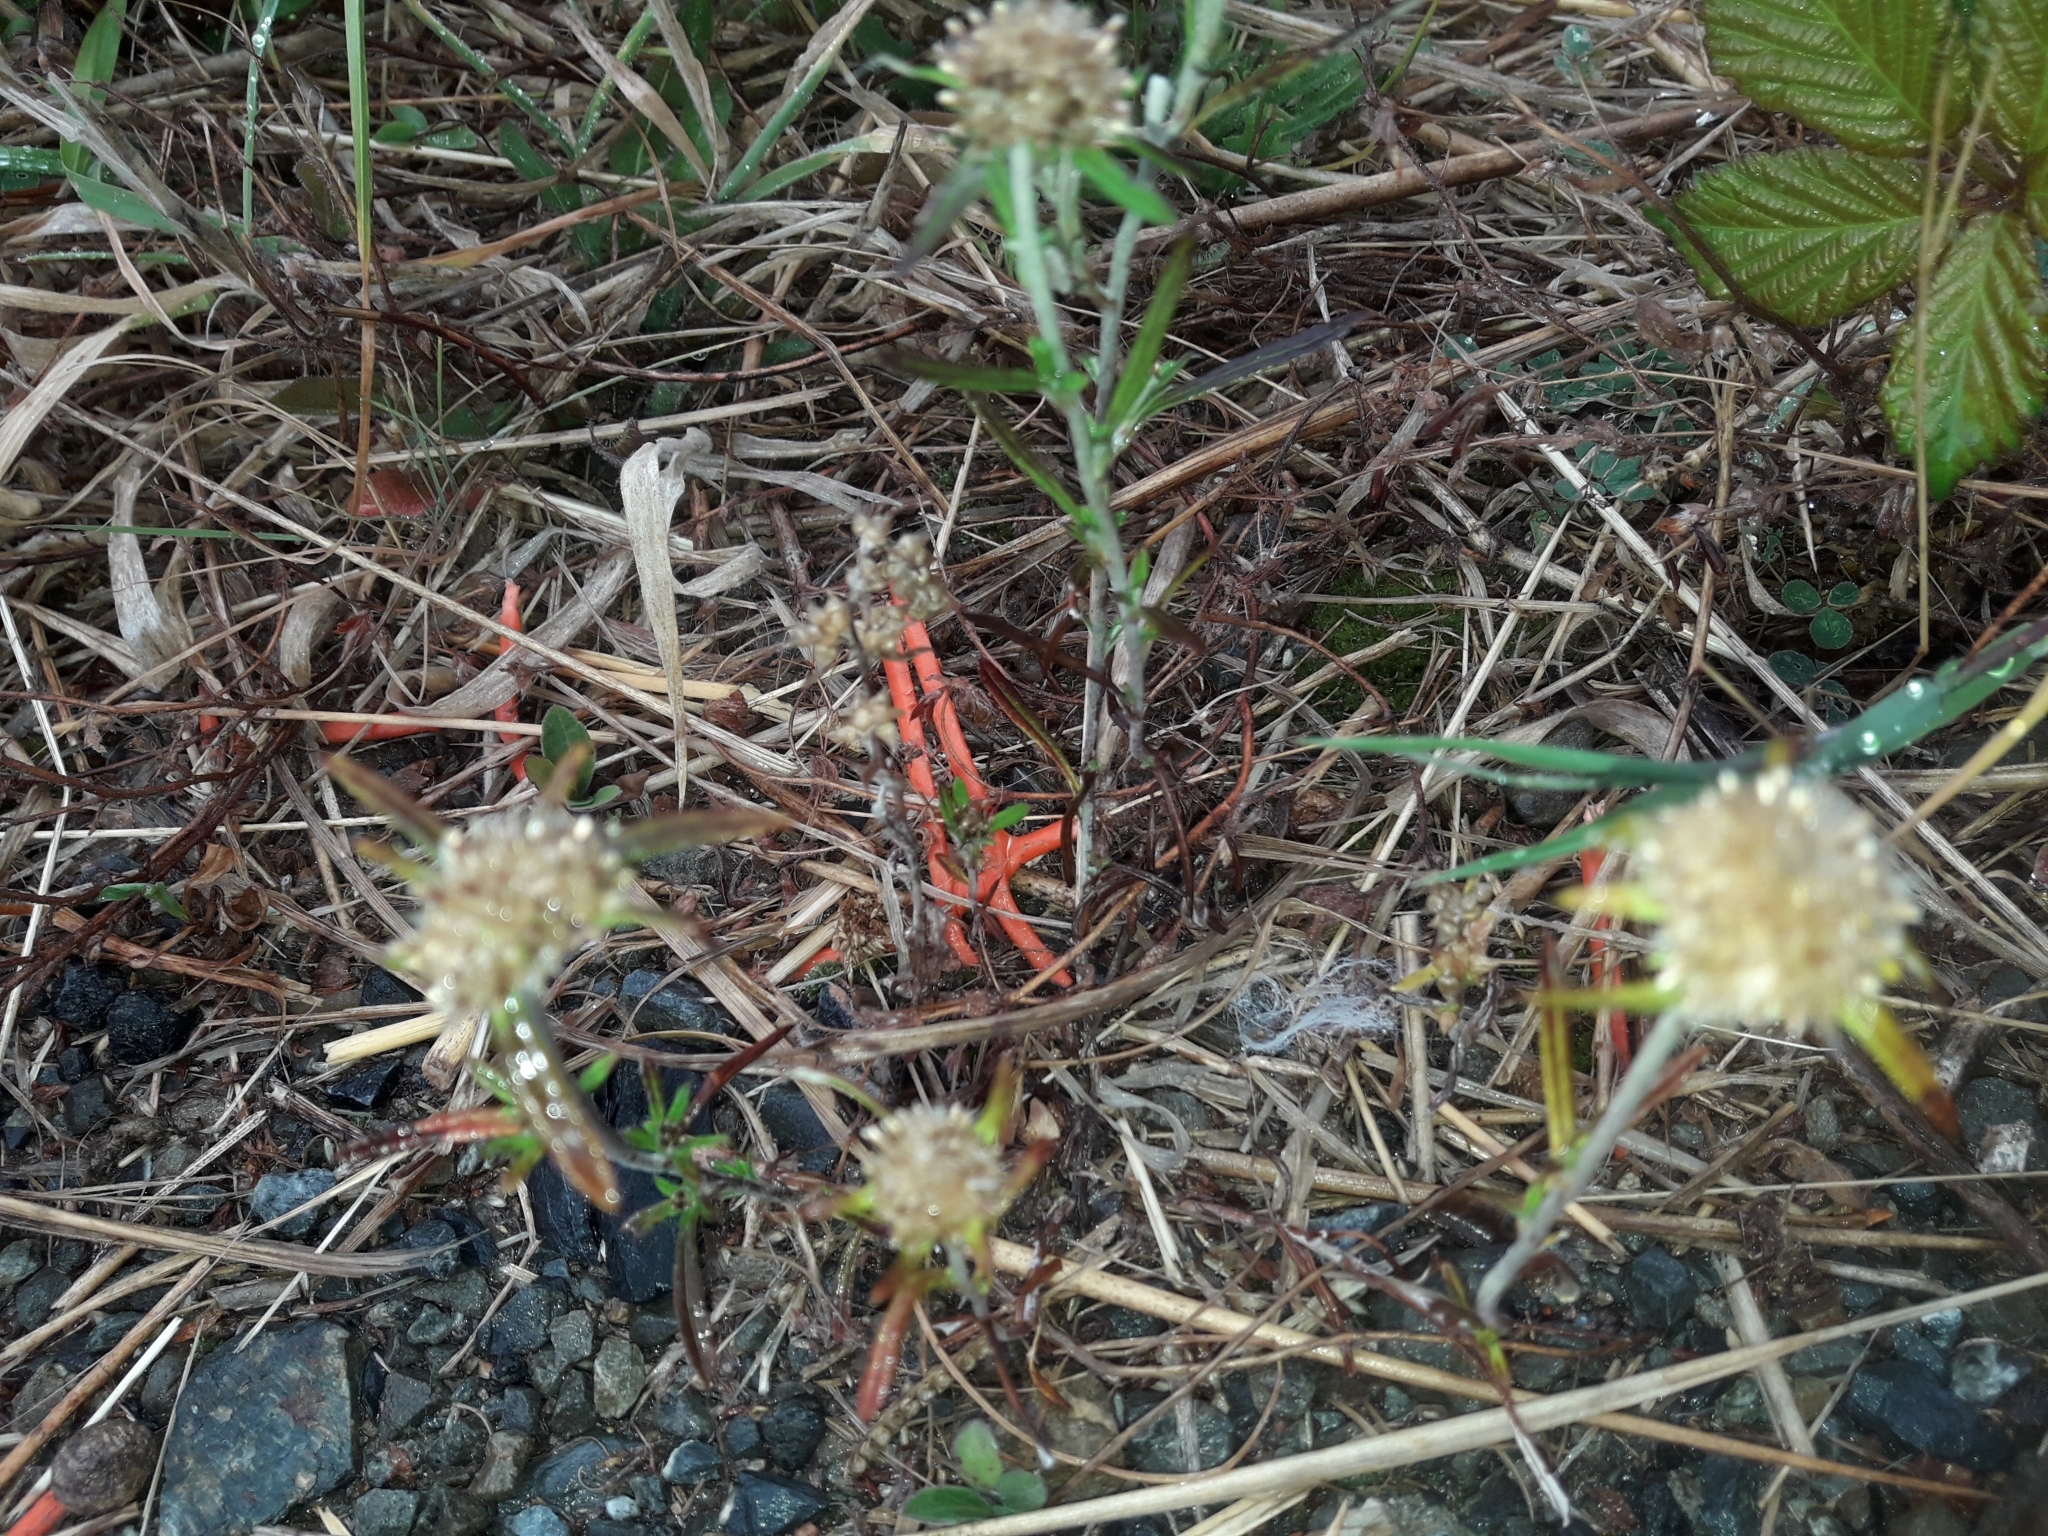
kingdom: Plantae
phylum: Tracheophyta
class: Magnoliopsida
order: Asterales
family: Asteraceae
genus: Euchiton
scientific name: Euchiton sphaericus
